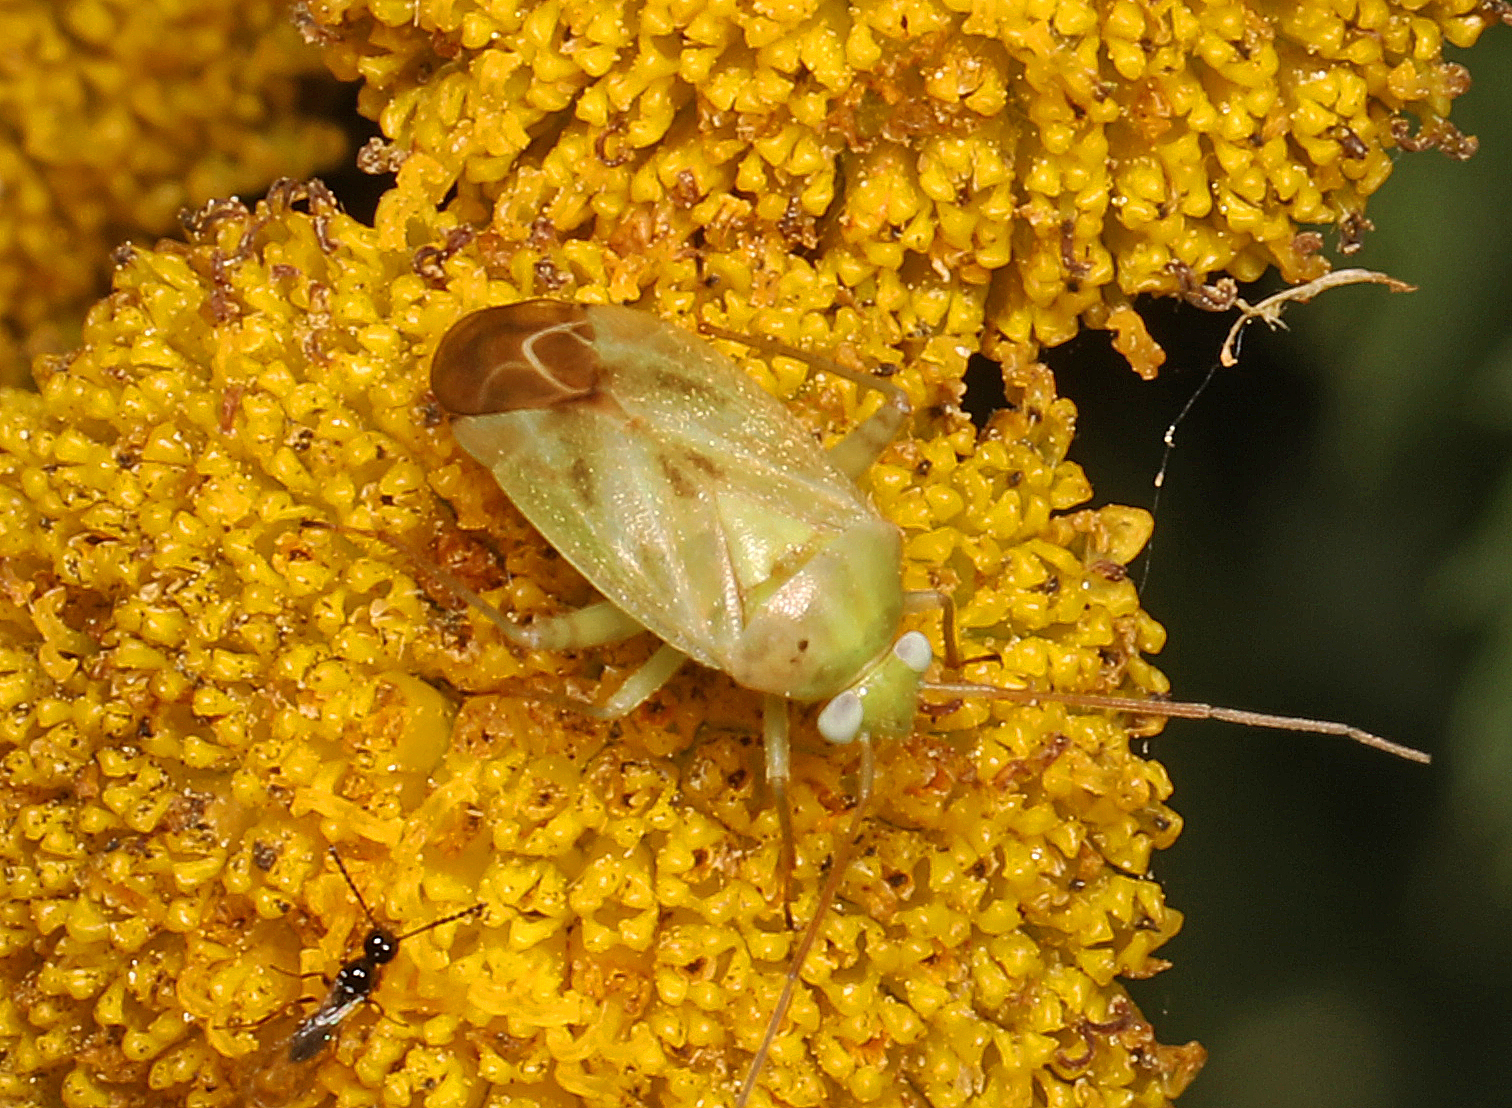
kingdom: Animalia
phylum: Arthropoda
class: Insecta
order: Hemiptera
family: Miridae
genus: Taylorilygus
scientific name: Taylorilygus apicalis
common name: Plant bug
